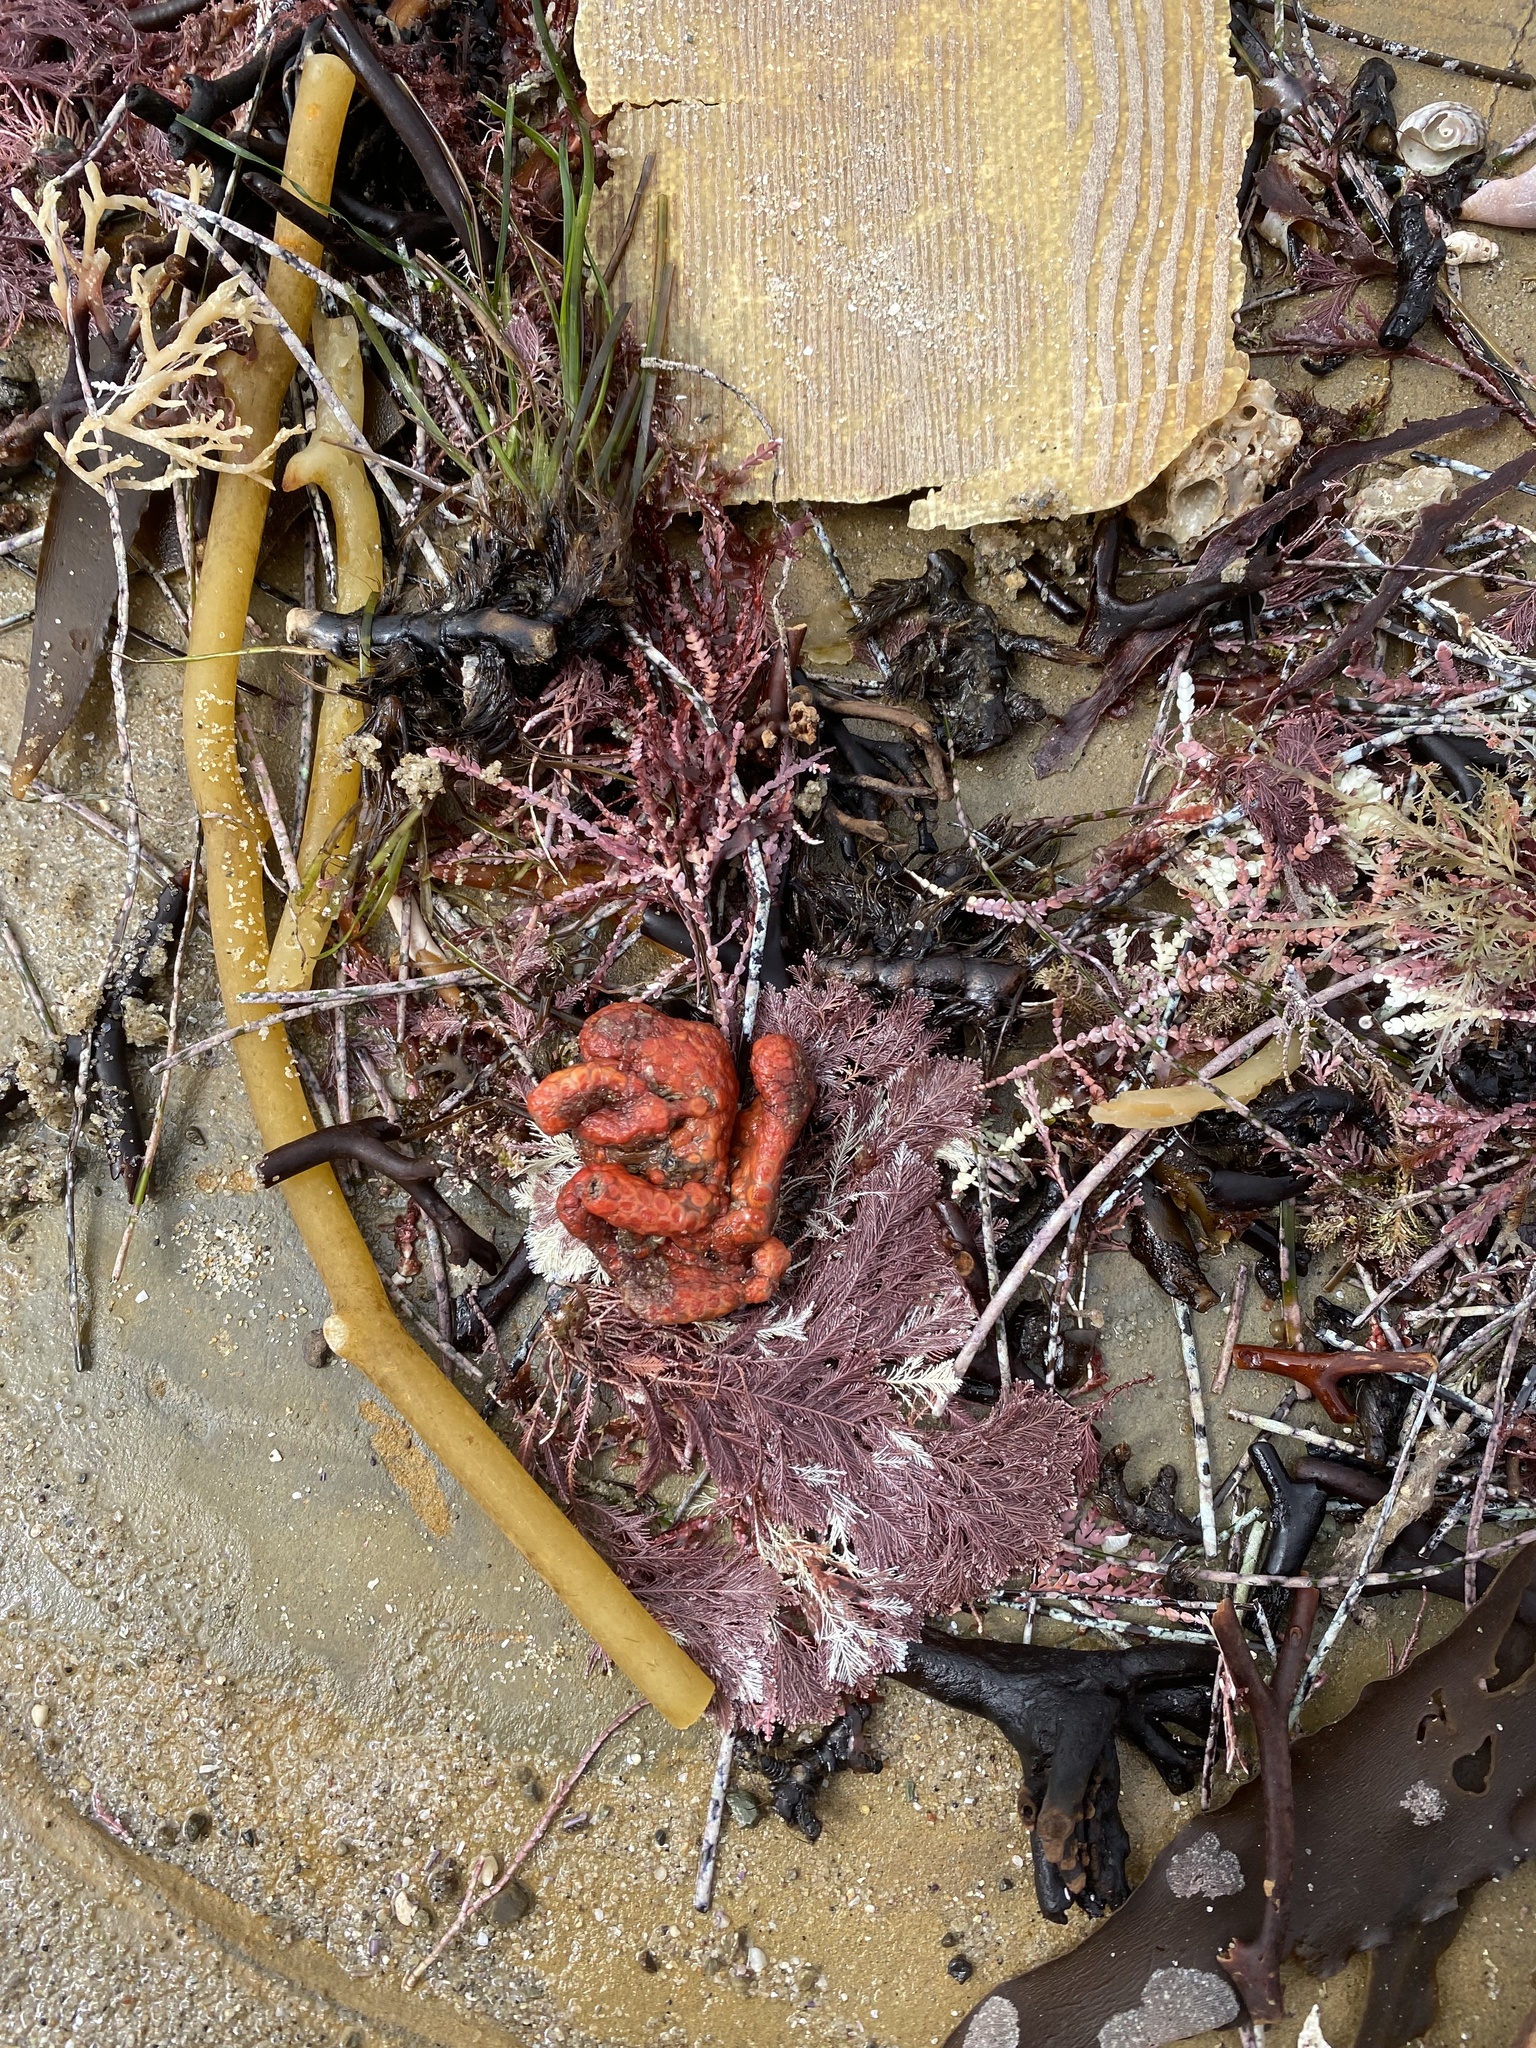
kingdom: Animalia
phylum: Chordata
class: Ascidiacea
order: Stolidobranchia
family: Styelidae
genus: Metandrocarpa
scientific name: Metandrocarpa dura
